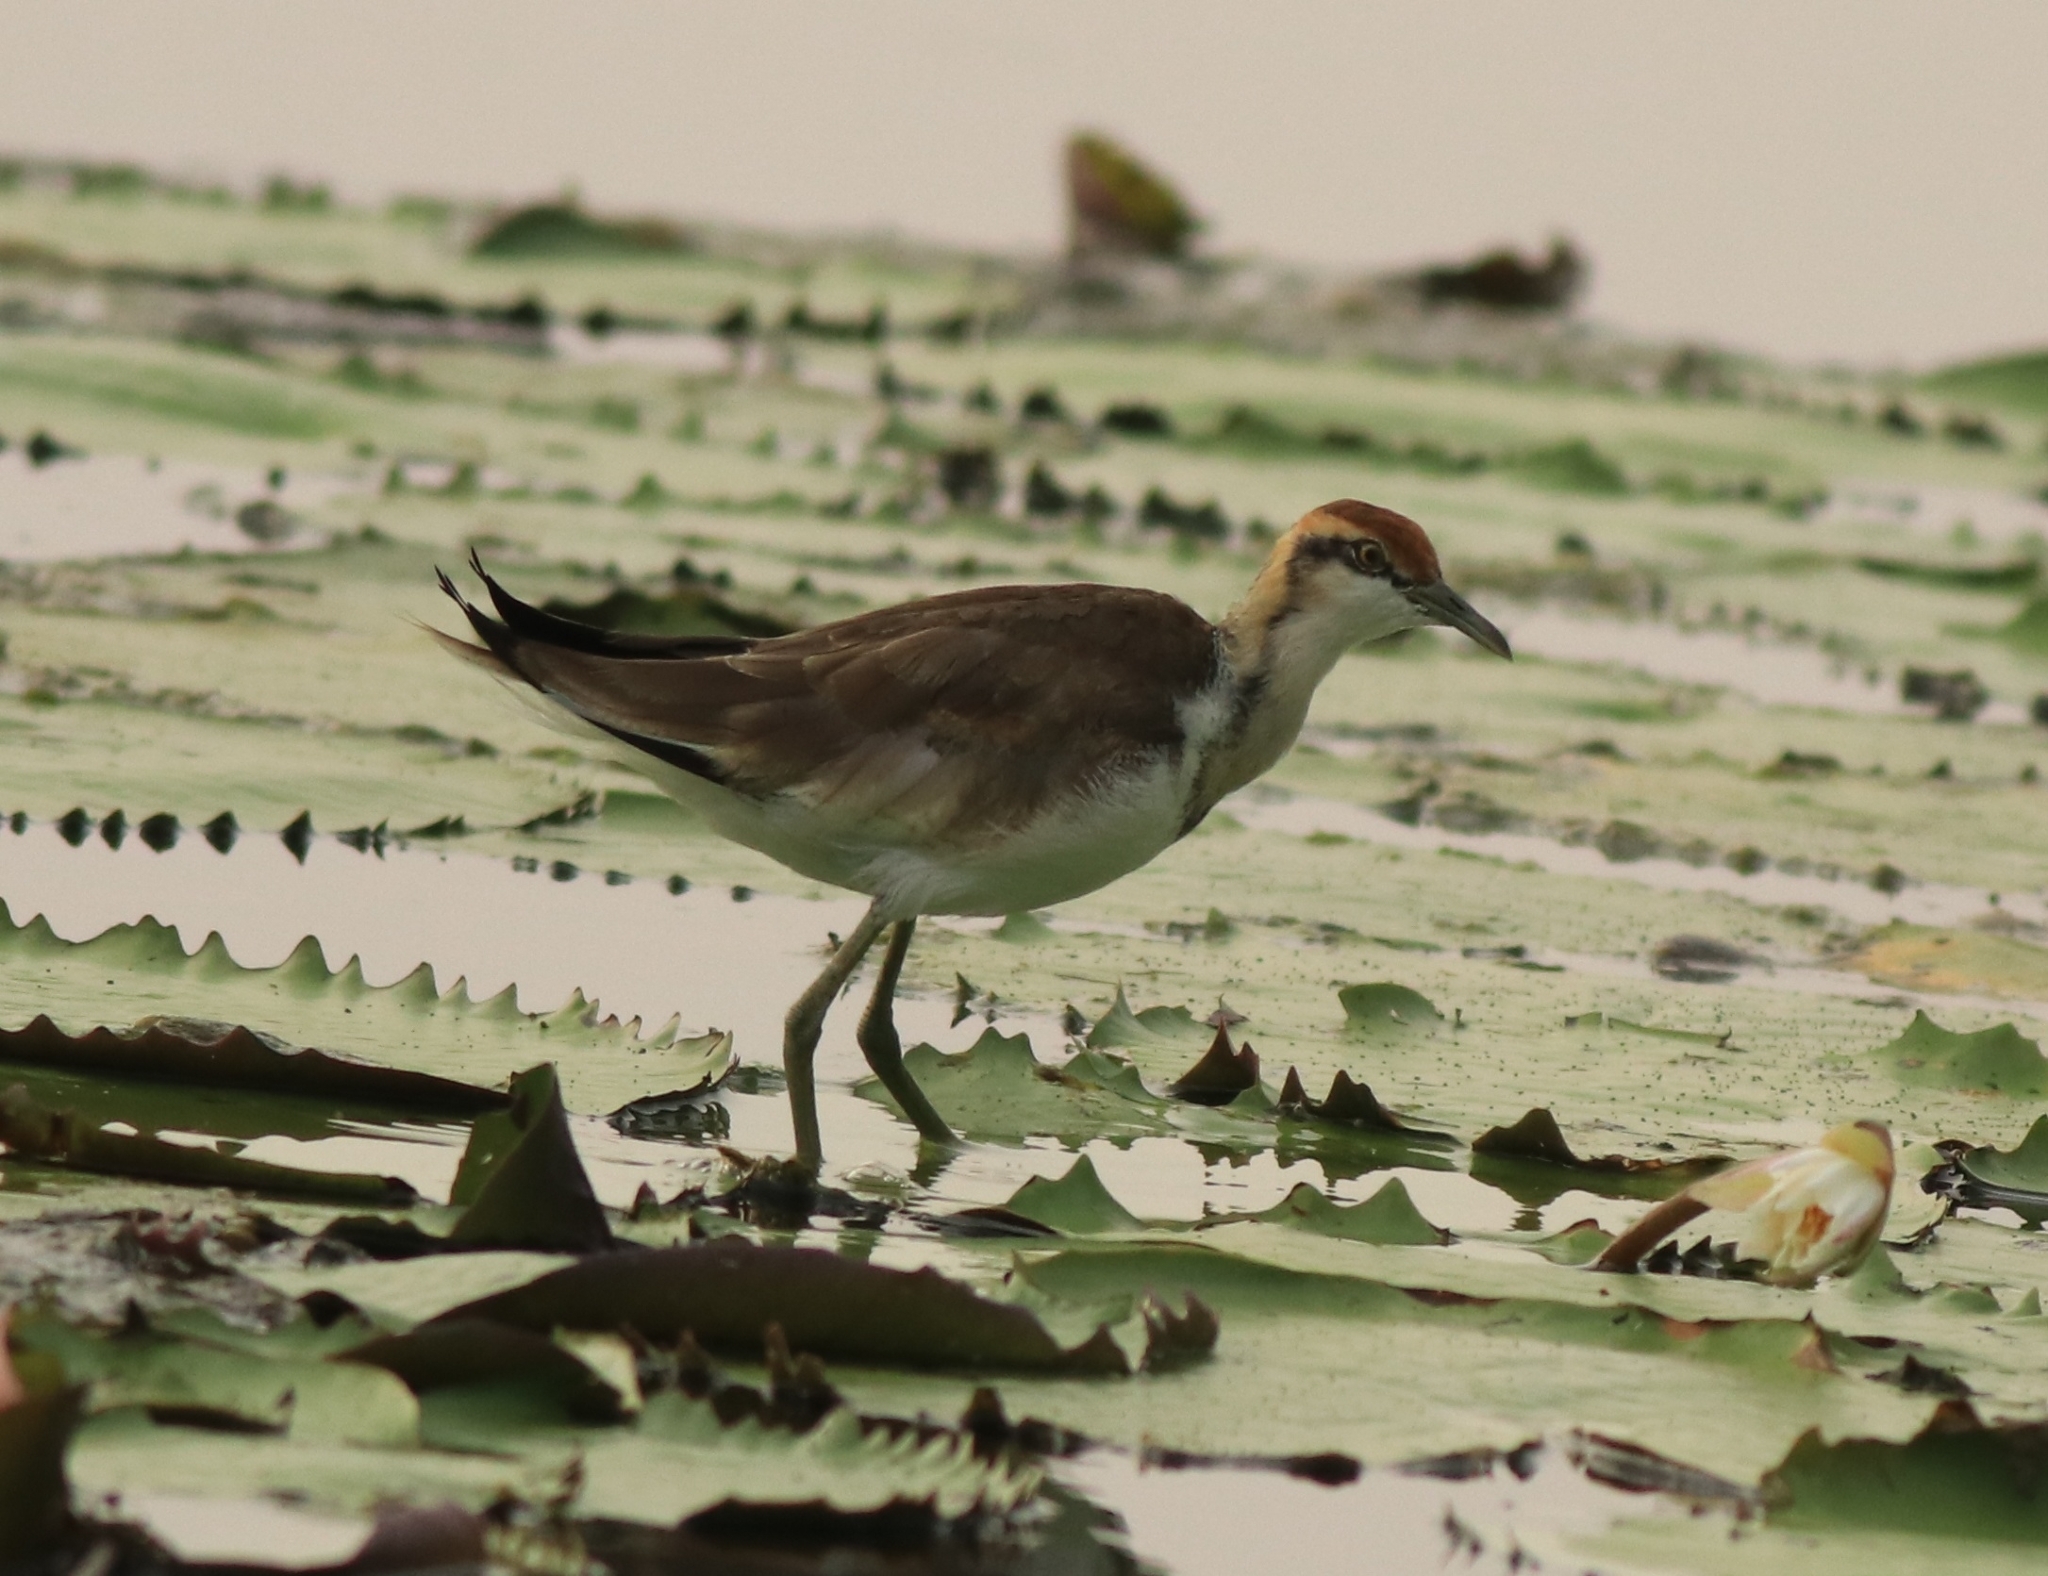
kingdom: Animalia
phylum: Chordata
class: Aves
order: Charadriiformes
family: Jacanidae
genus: Hydrophasianus
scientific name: Hydrophasianus chirurgus
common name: Pheasant-tailed jacana
